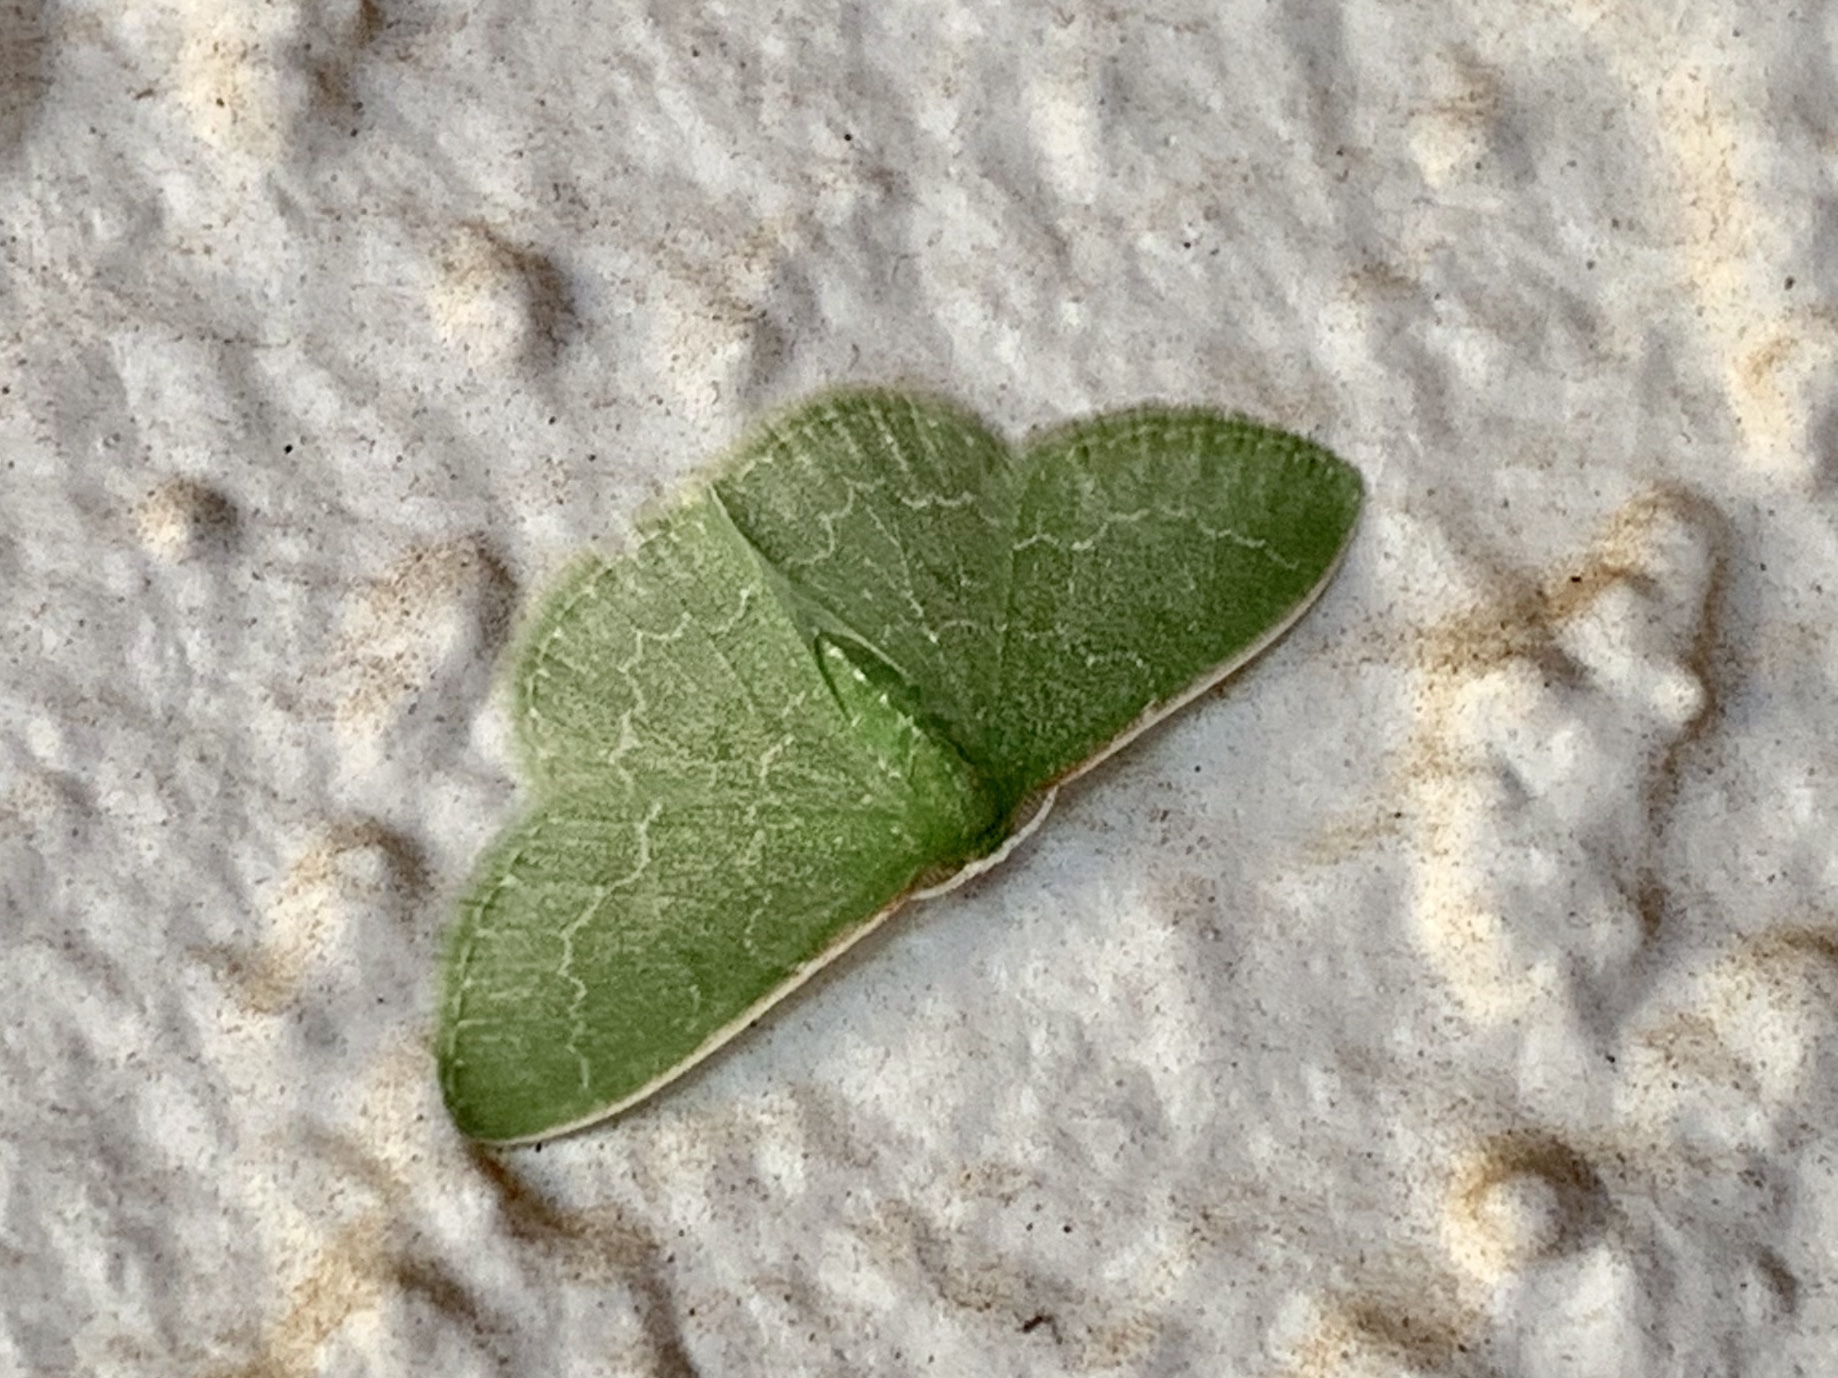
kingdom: Animalia
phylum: Arthropoda
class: Insecta
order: Lepidoptera
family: Geometridae
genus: Synchlora
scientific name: Synchlora frondaria
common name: Southern emerald
